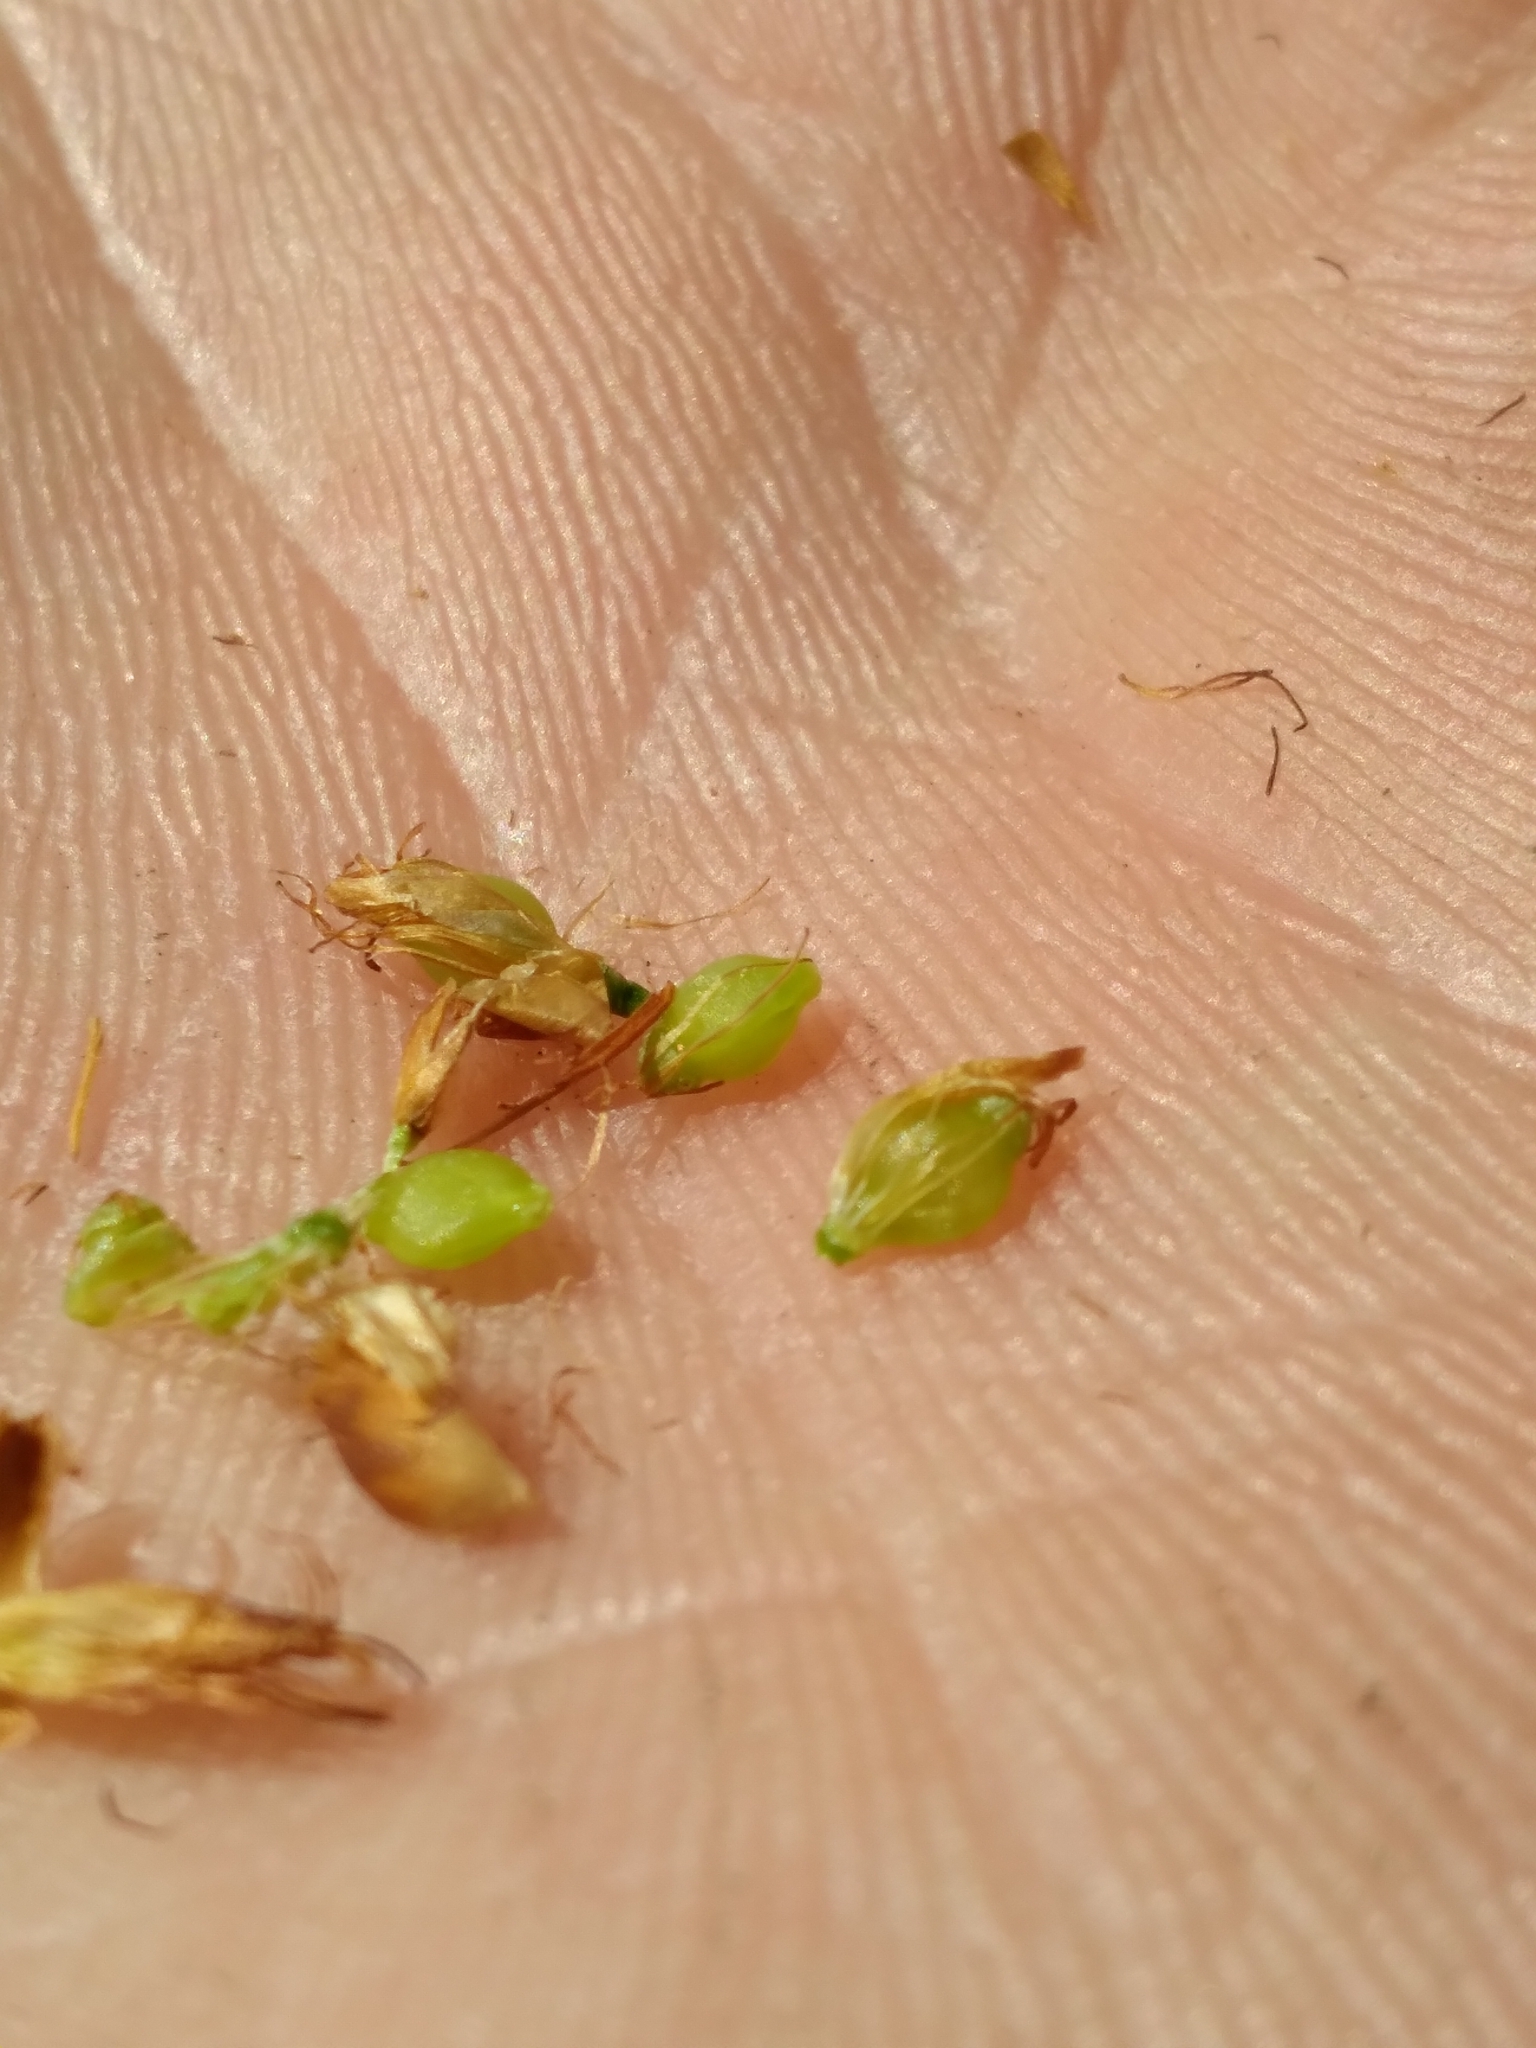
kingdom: Plantae
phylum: Tracheophyta
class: Liliopsida
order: Poales
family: Cyperaceae
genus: Rhynchospora
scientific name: Rhynchospora grayi
